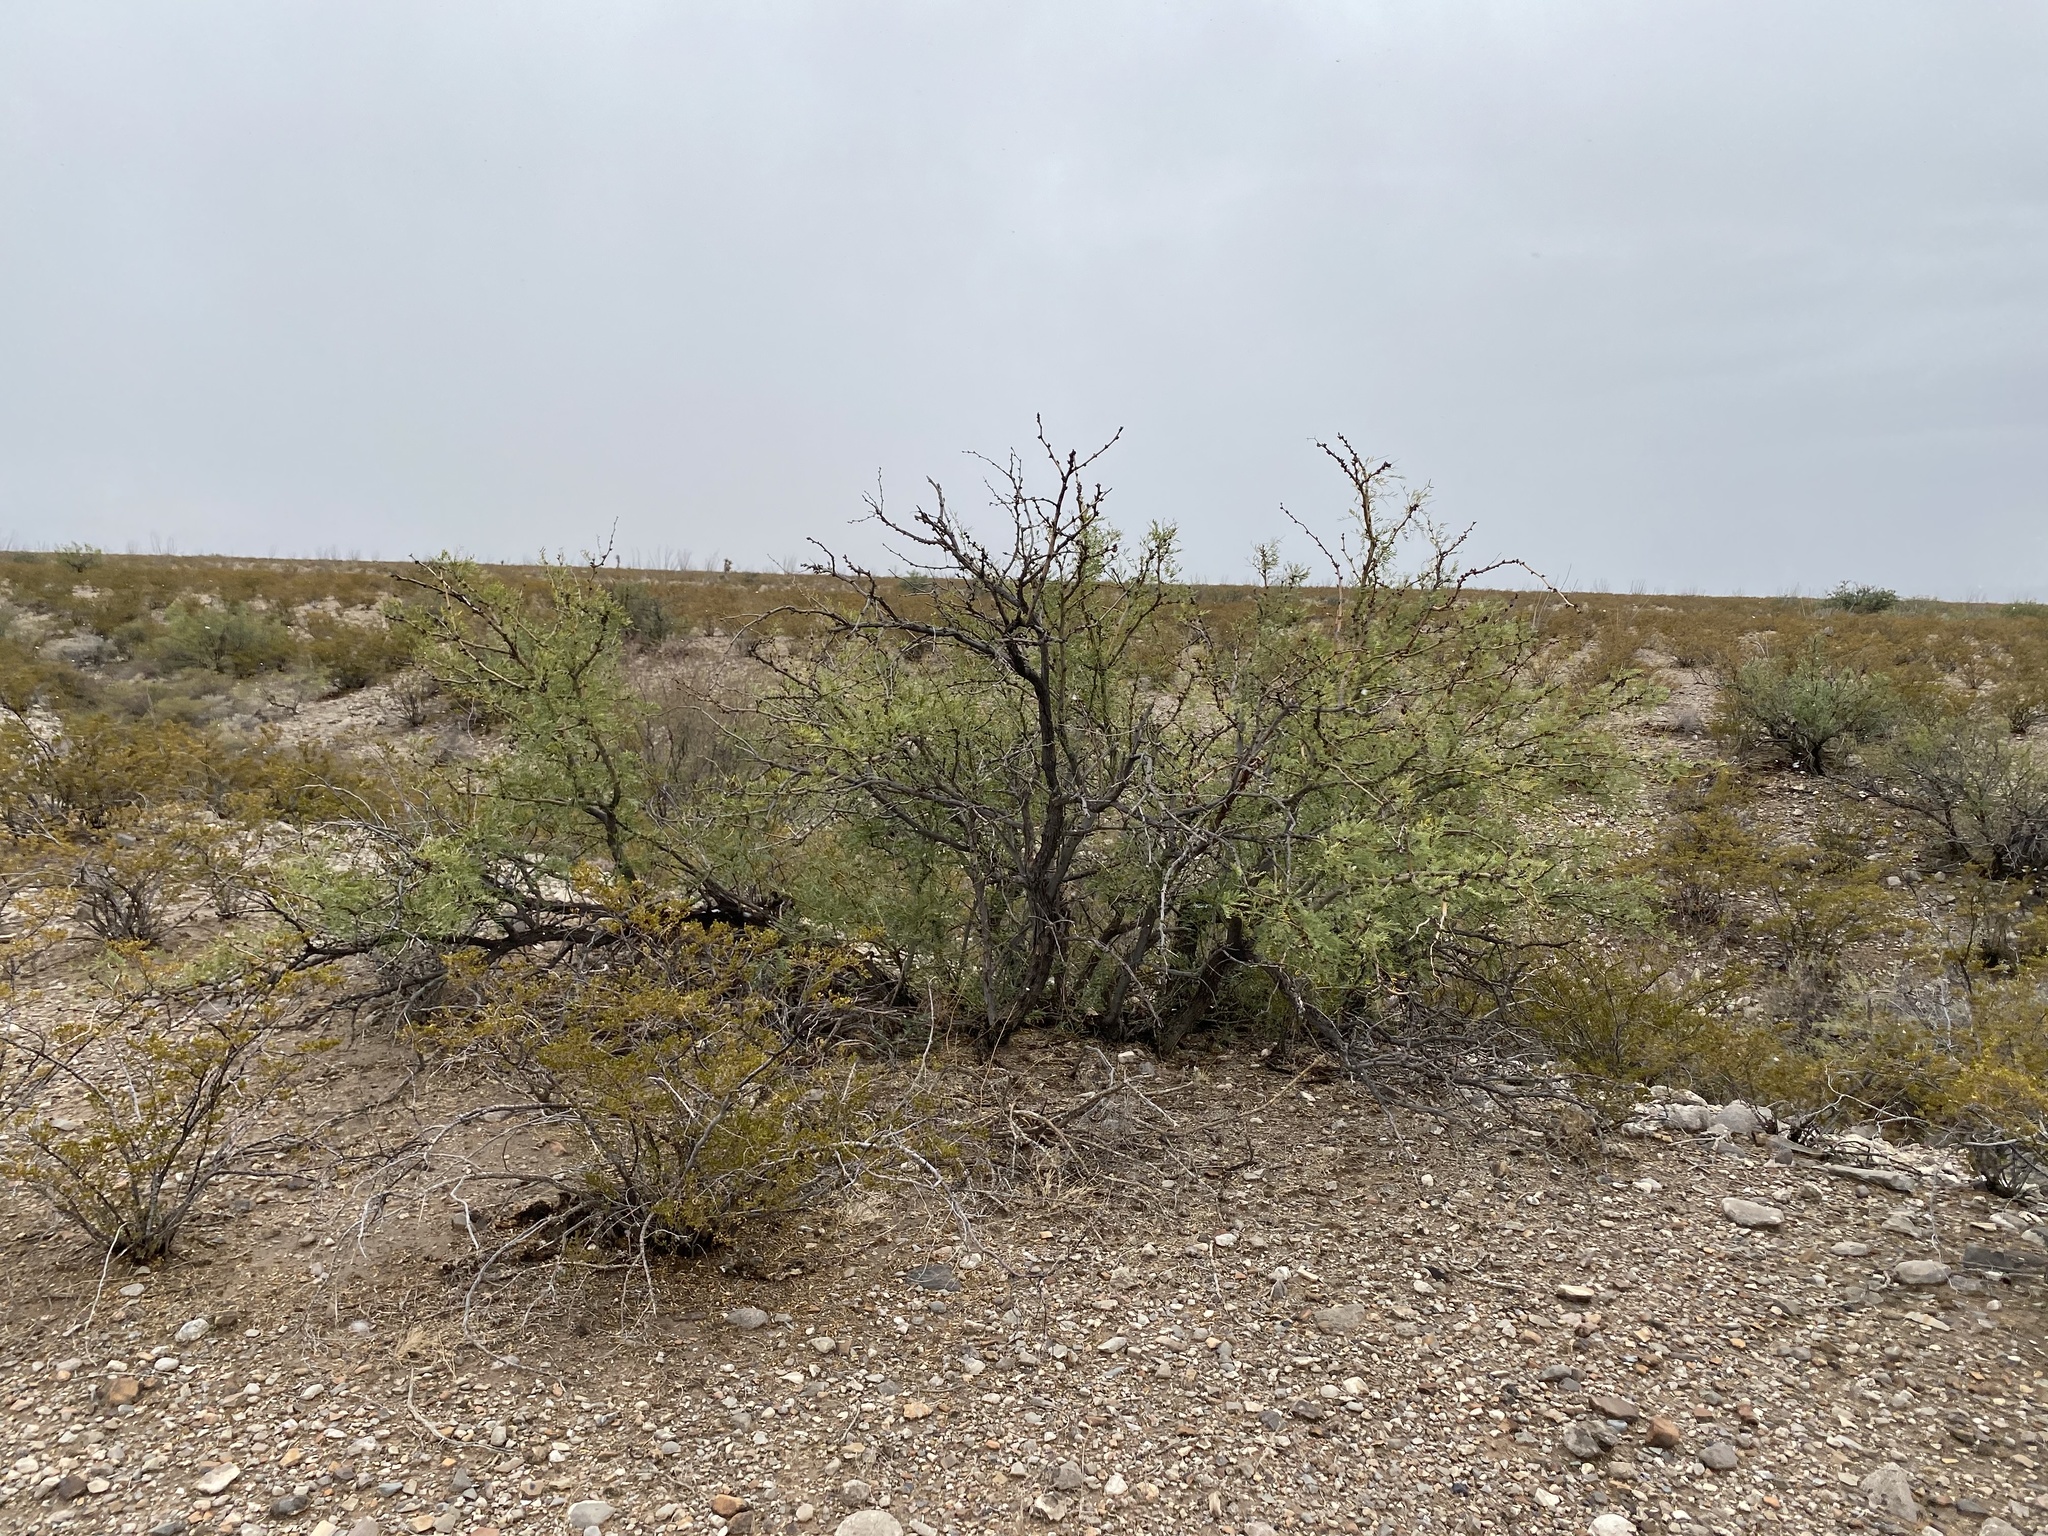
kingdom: Plantae
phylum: Tracheophyta
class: Magnoliopsida
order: Fabales
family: Fabaceae
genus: Prosopis
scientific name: Prosopis glandulosa
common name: Honey mesquite
